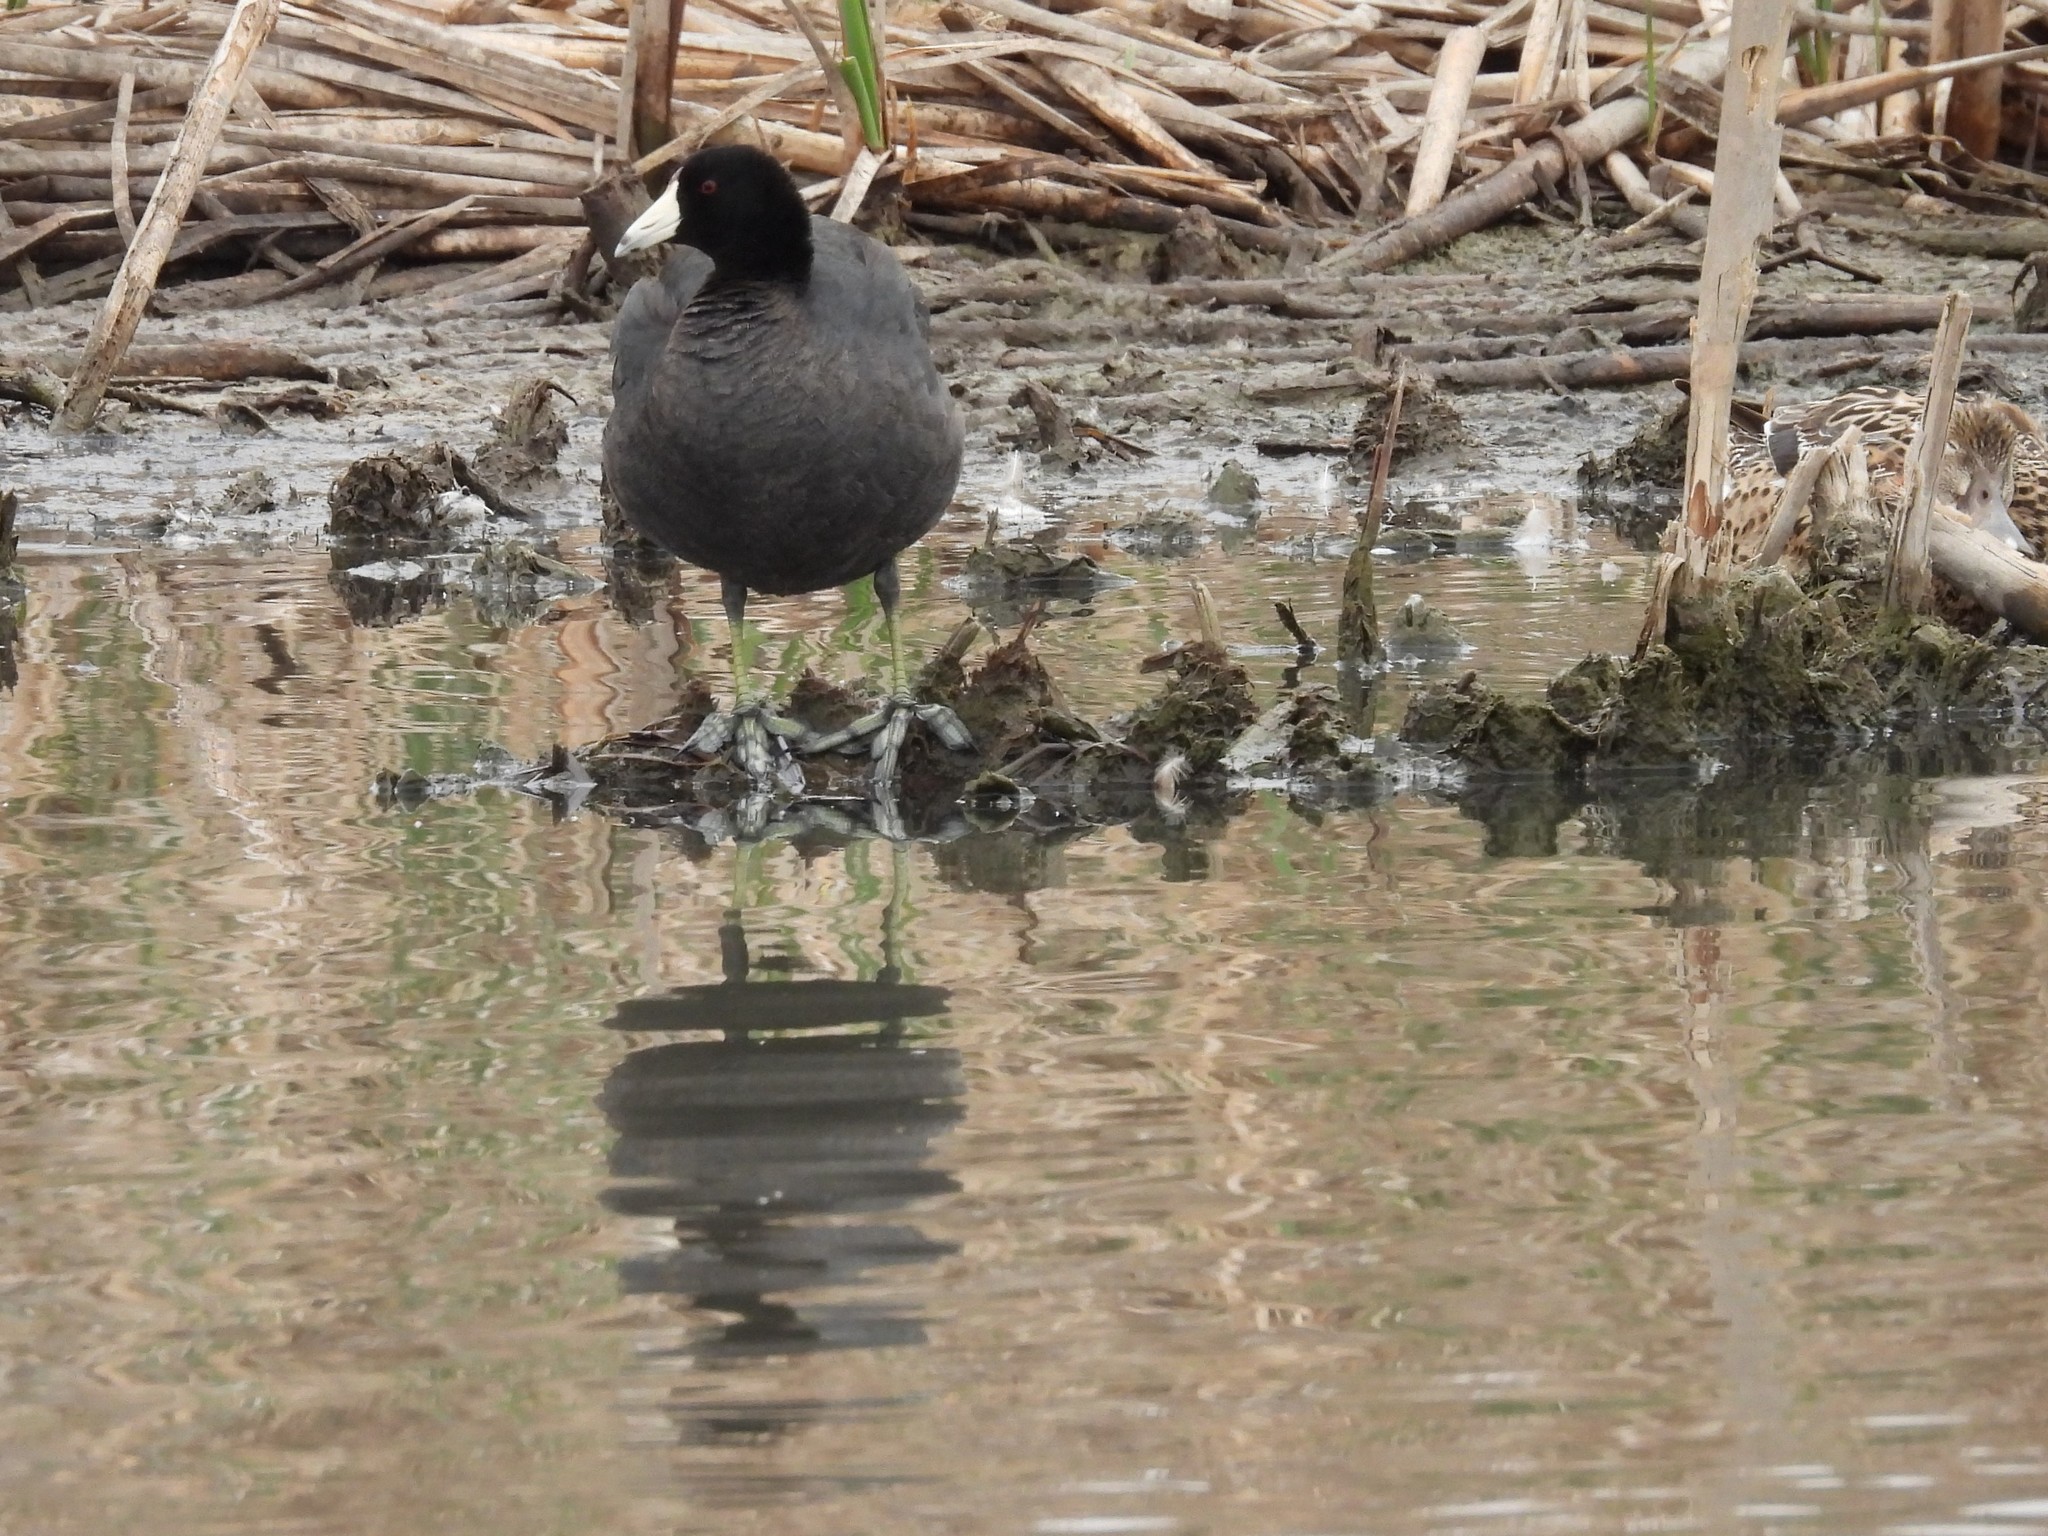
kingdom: Animalia
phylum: Chordata
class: Aves
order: Gruiformes
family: Rallidae
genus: Fulica
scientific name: Fulica americana
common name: American coot
